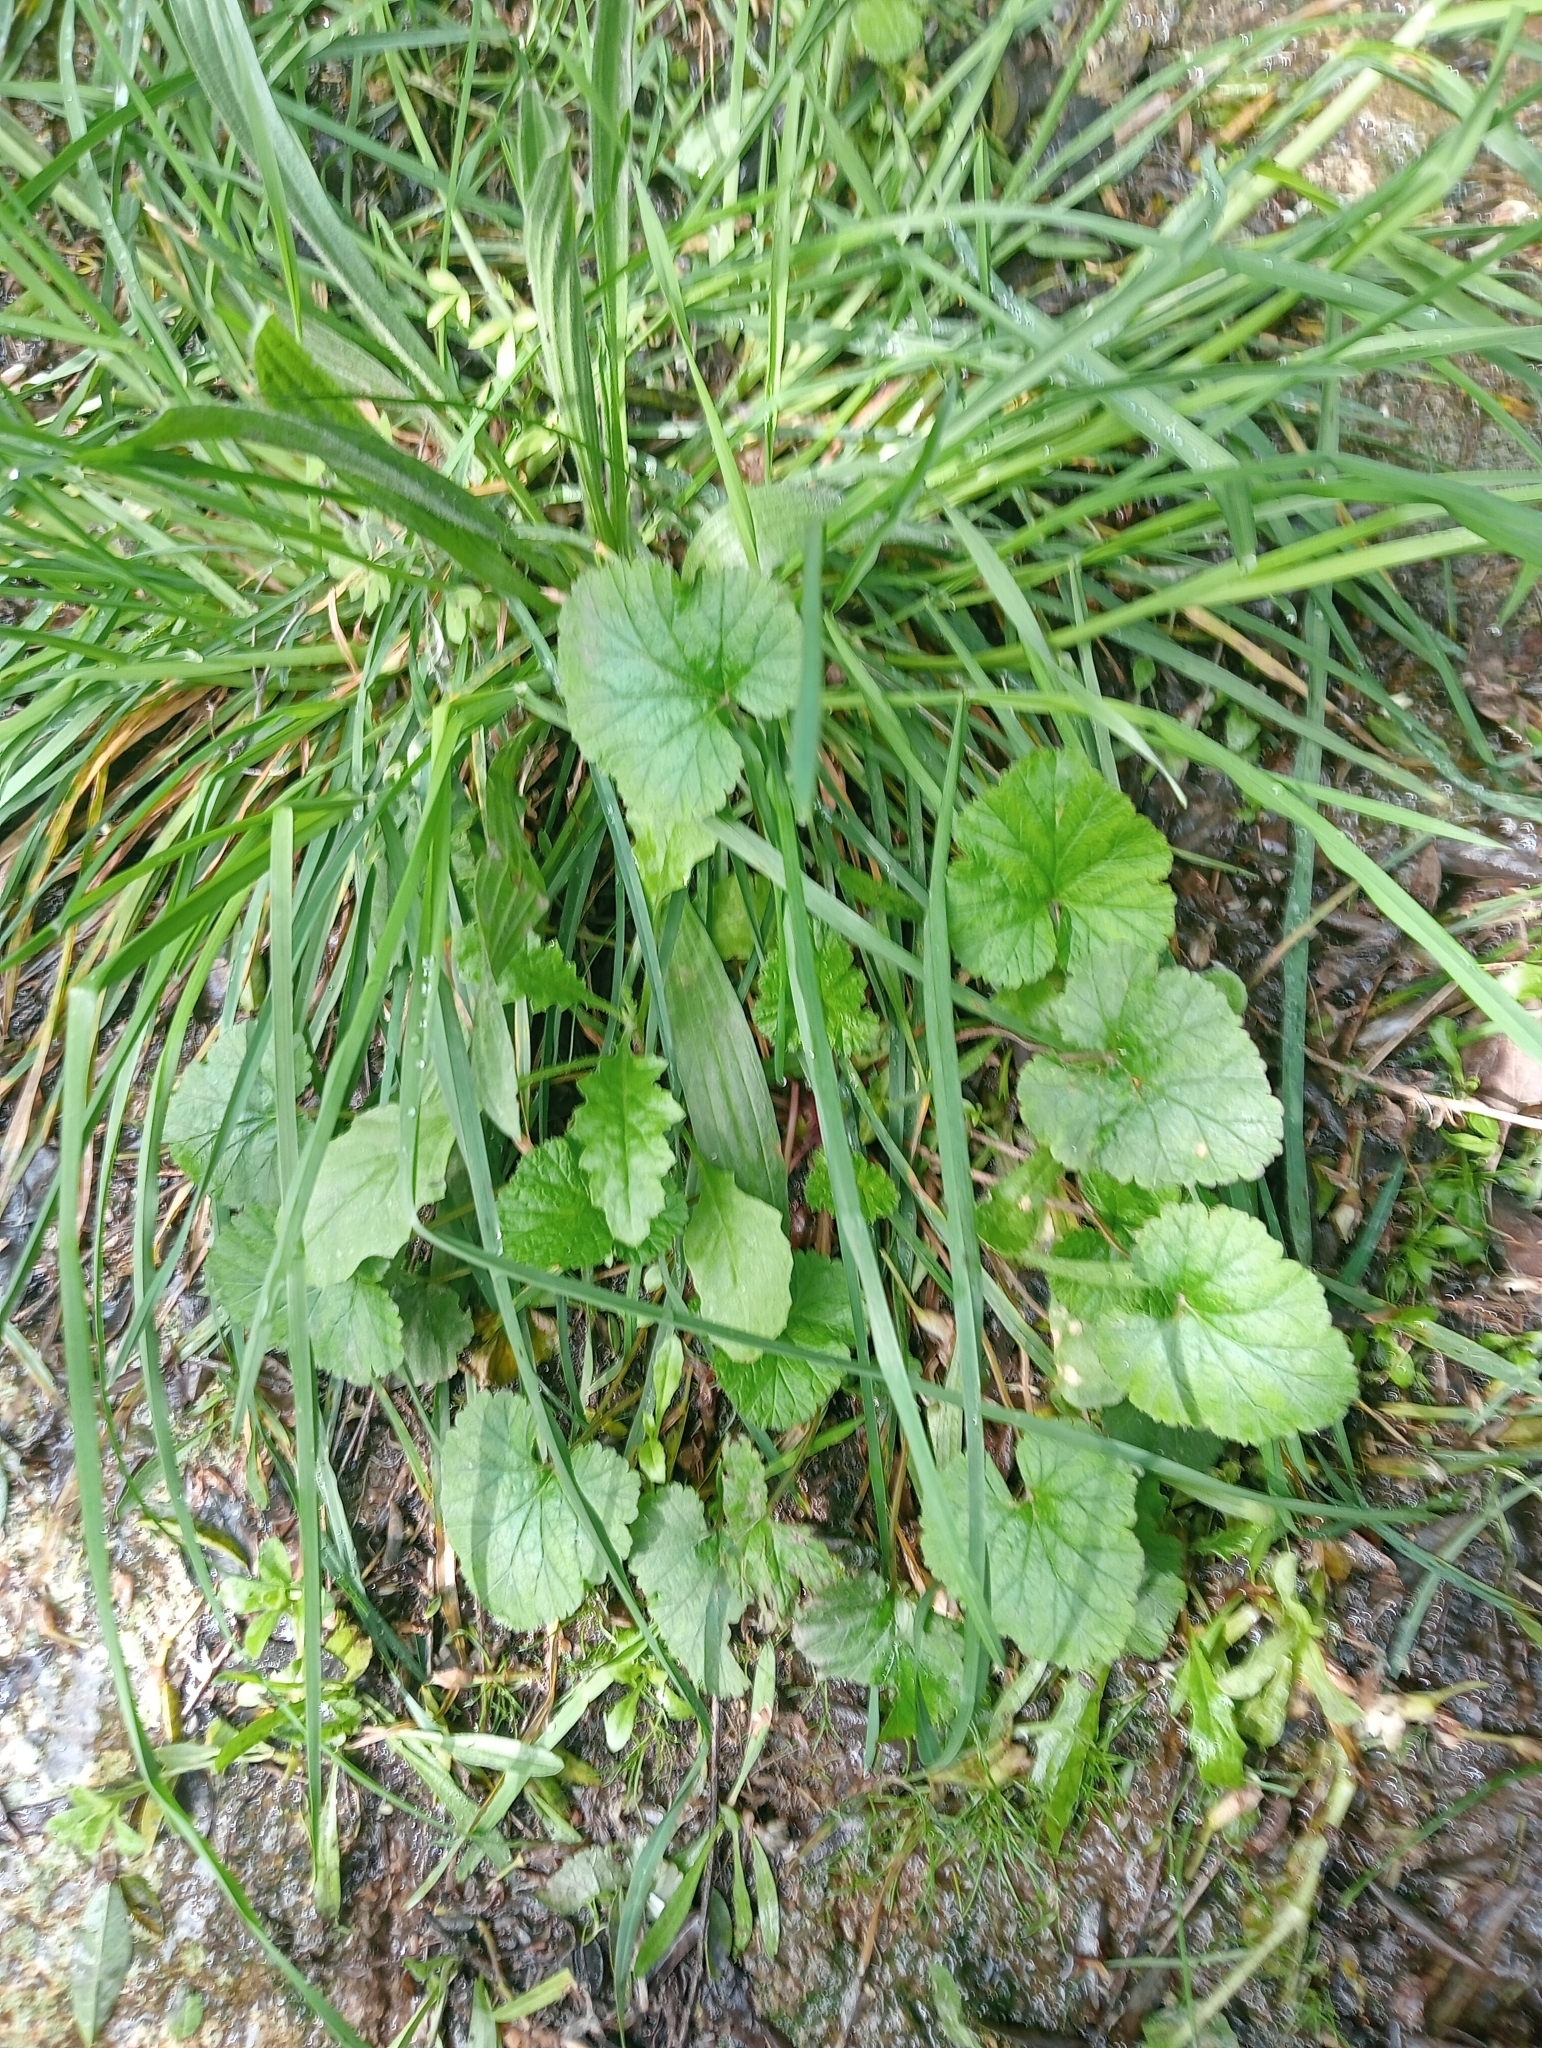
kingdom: Plantae
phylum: Tracheophyta
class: Magnoliopsida
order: Geraniales
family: Geraniaceae
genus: Pelargonium
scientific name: Pelargonium inodorum
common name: Kopata geranium
